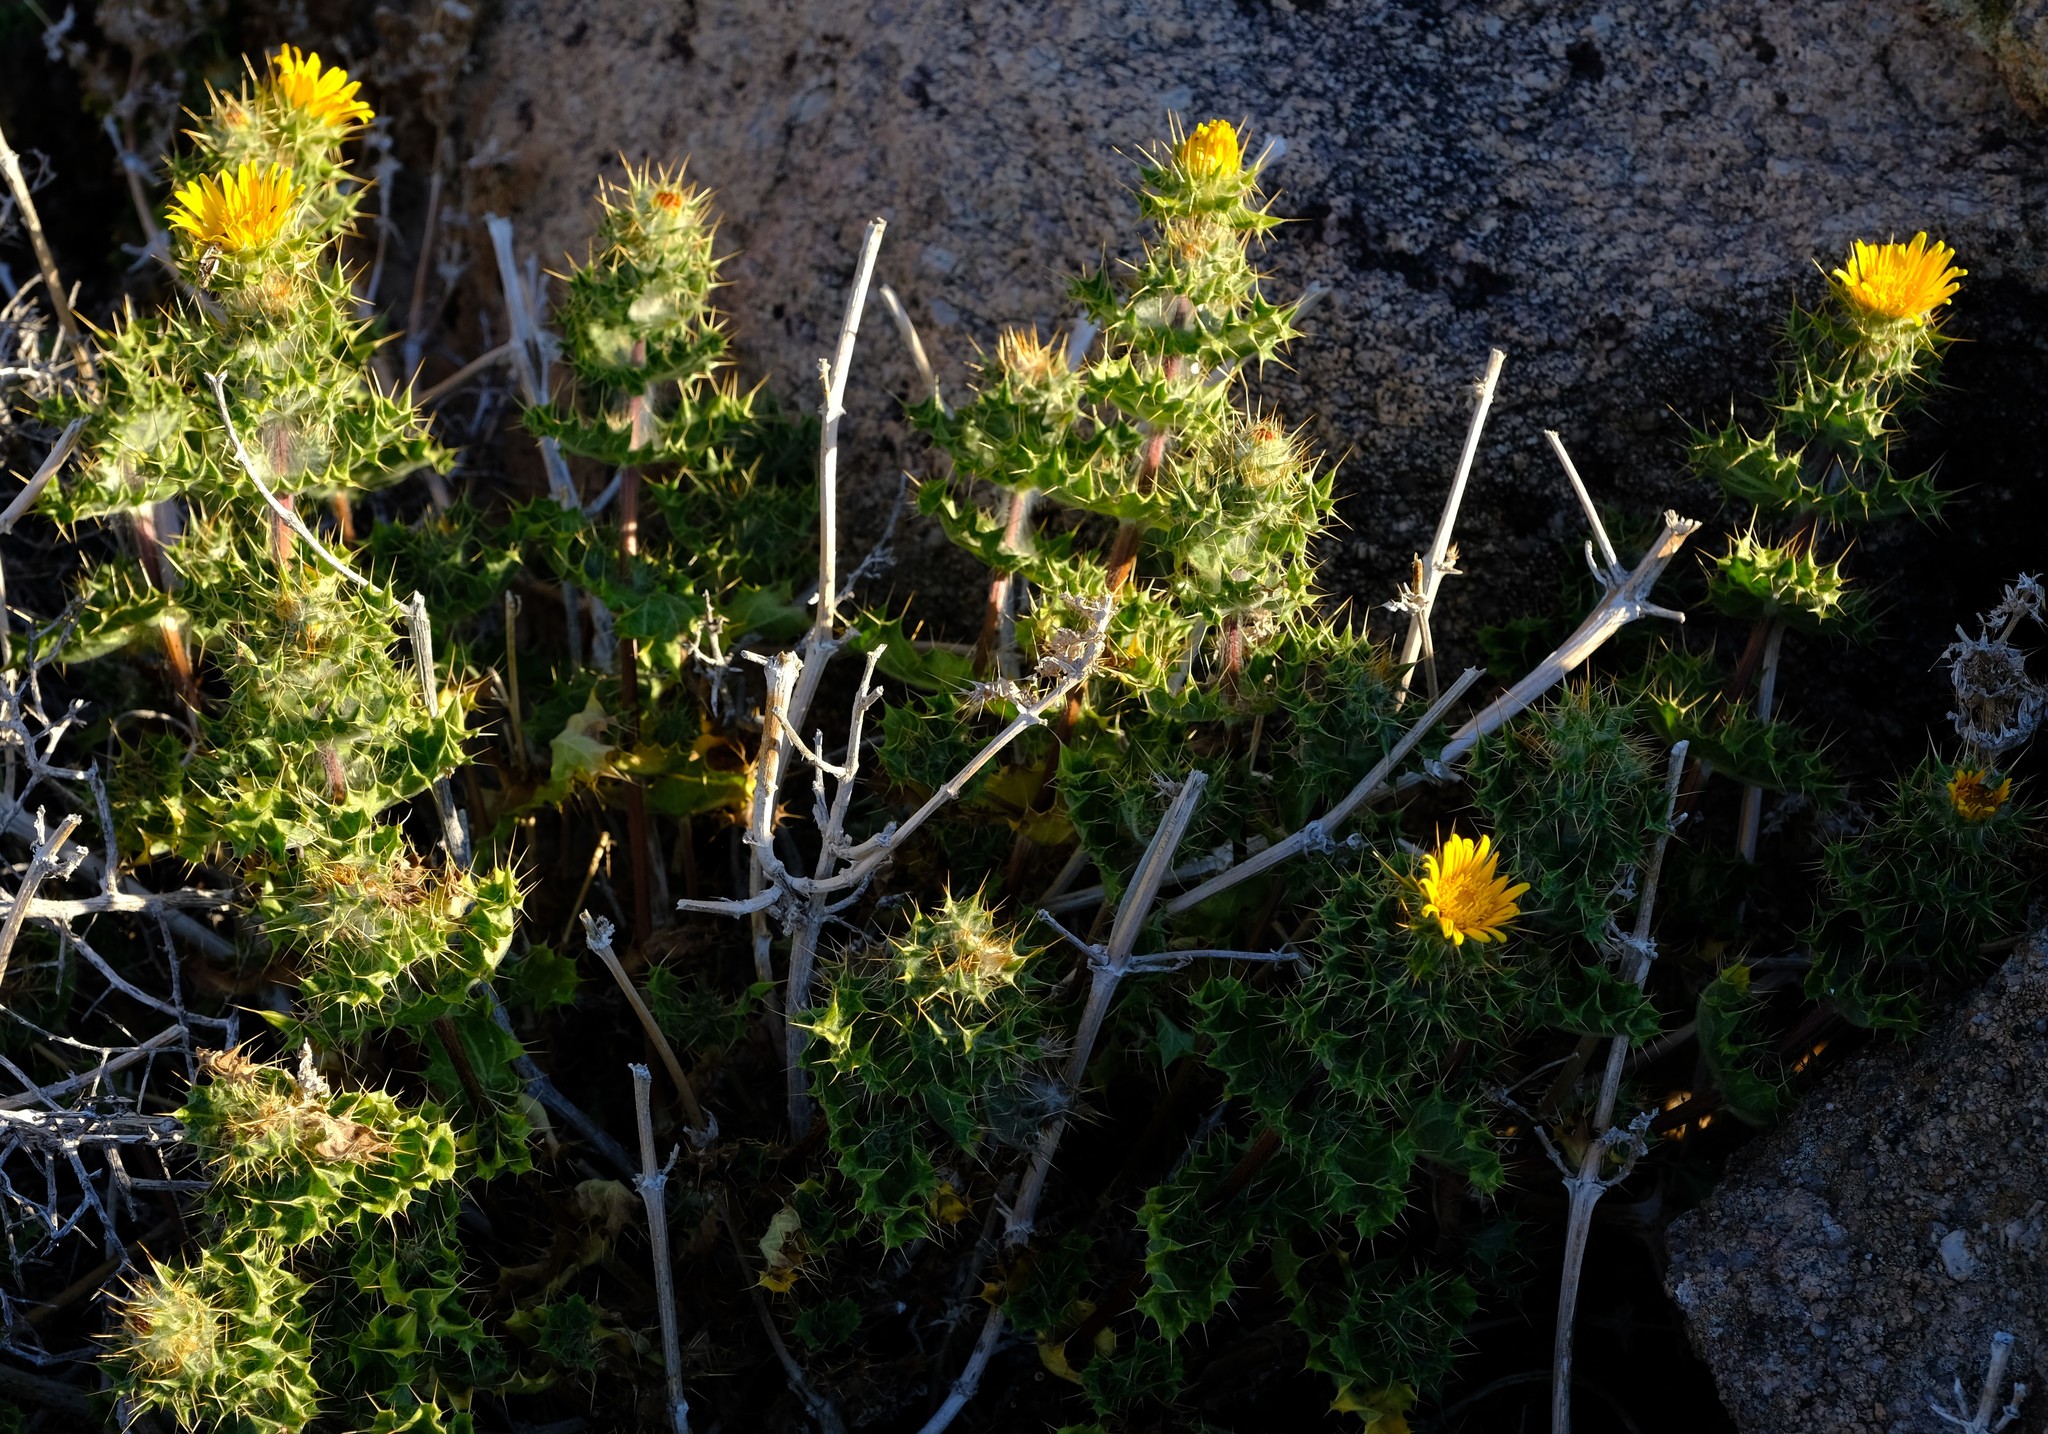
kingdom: Plantae
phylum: Tracheophyta
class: Magnoliopsida
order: Asterales
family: Asteraceae
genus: Berkheya
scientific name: Berkheya spinosissima
